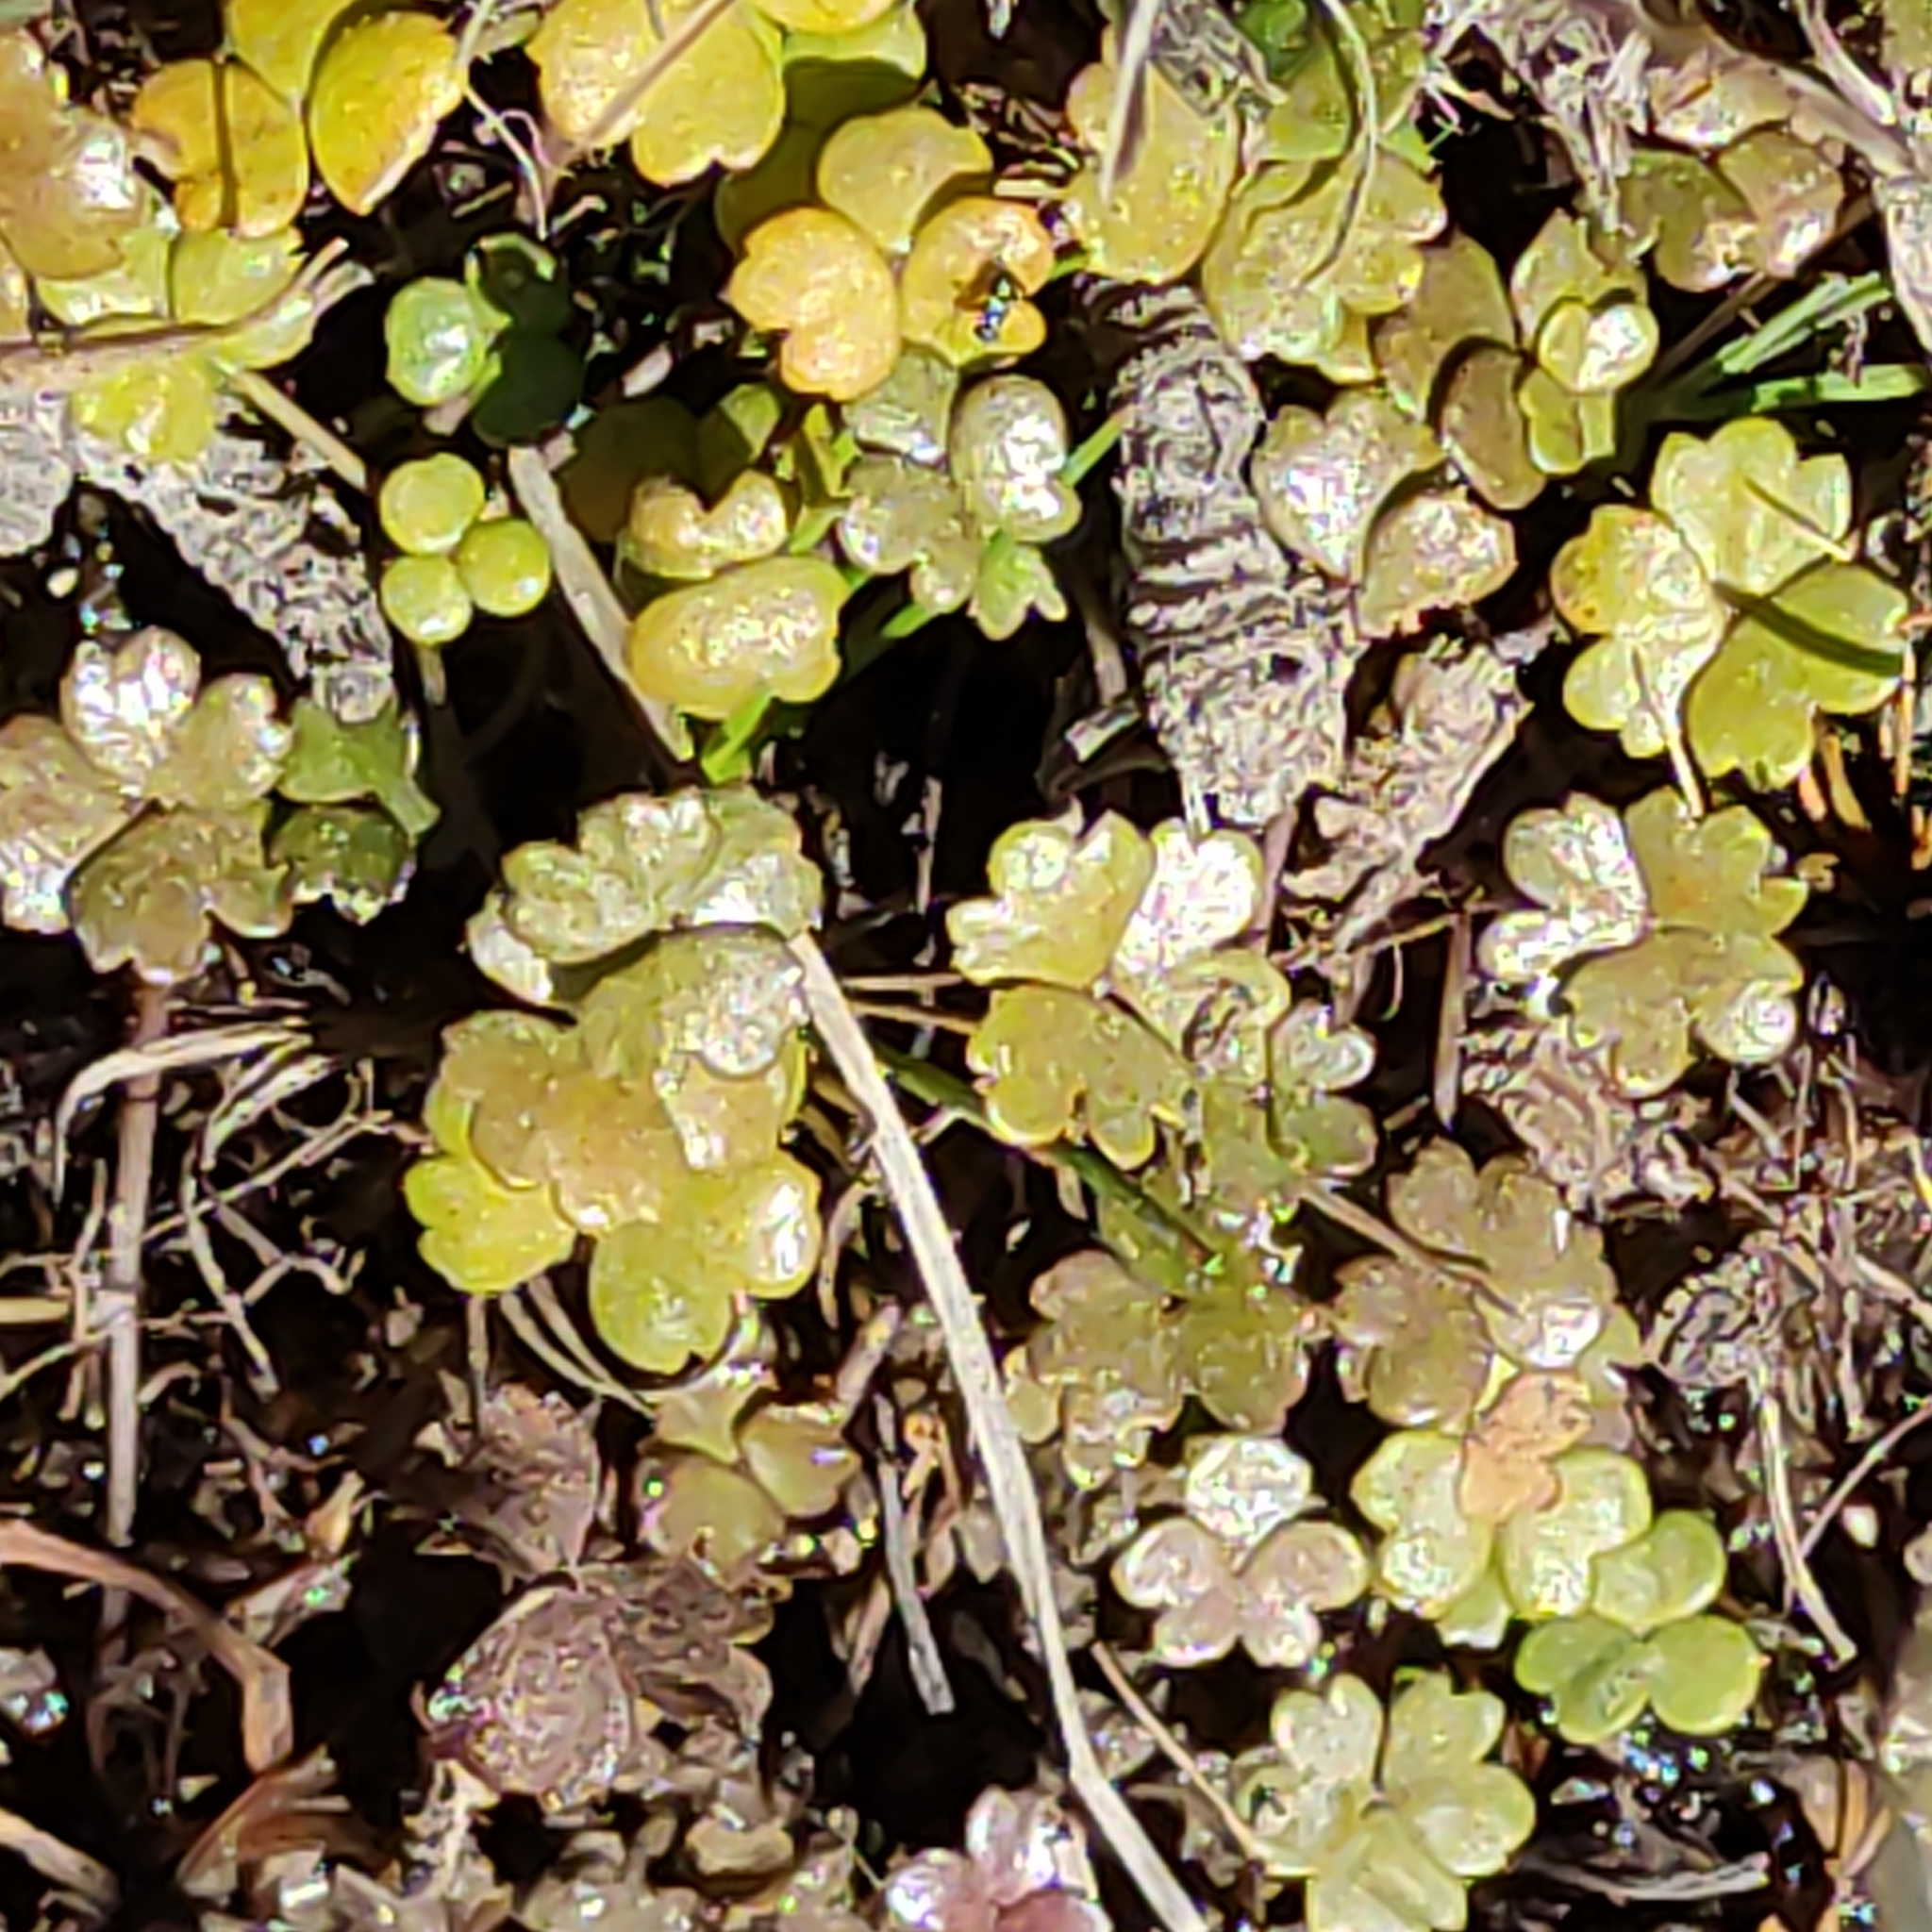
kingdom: Plantae
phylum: Tracheophyta
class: Magnoliopsida
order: Apiales
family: Araliaceae
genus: Hydrocotyle
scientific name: Hydrocotyle sulcata
